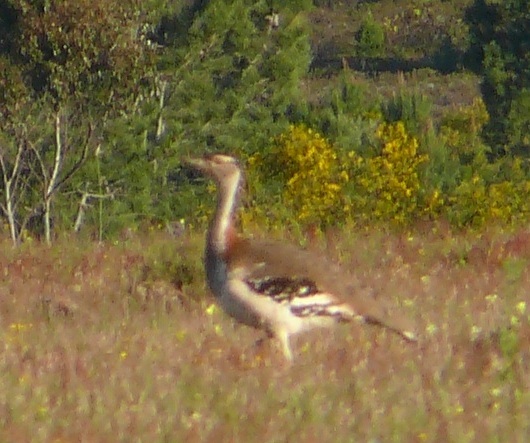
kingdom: Animalia
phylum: Chordata
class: Aves
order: Otidiformes
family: Otididae
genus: Neotis
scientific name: Neotis denhami
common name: Denham's bustard
